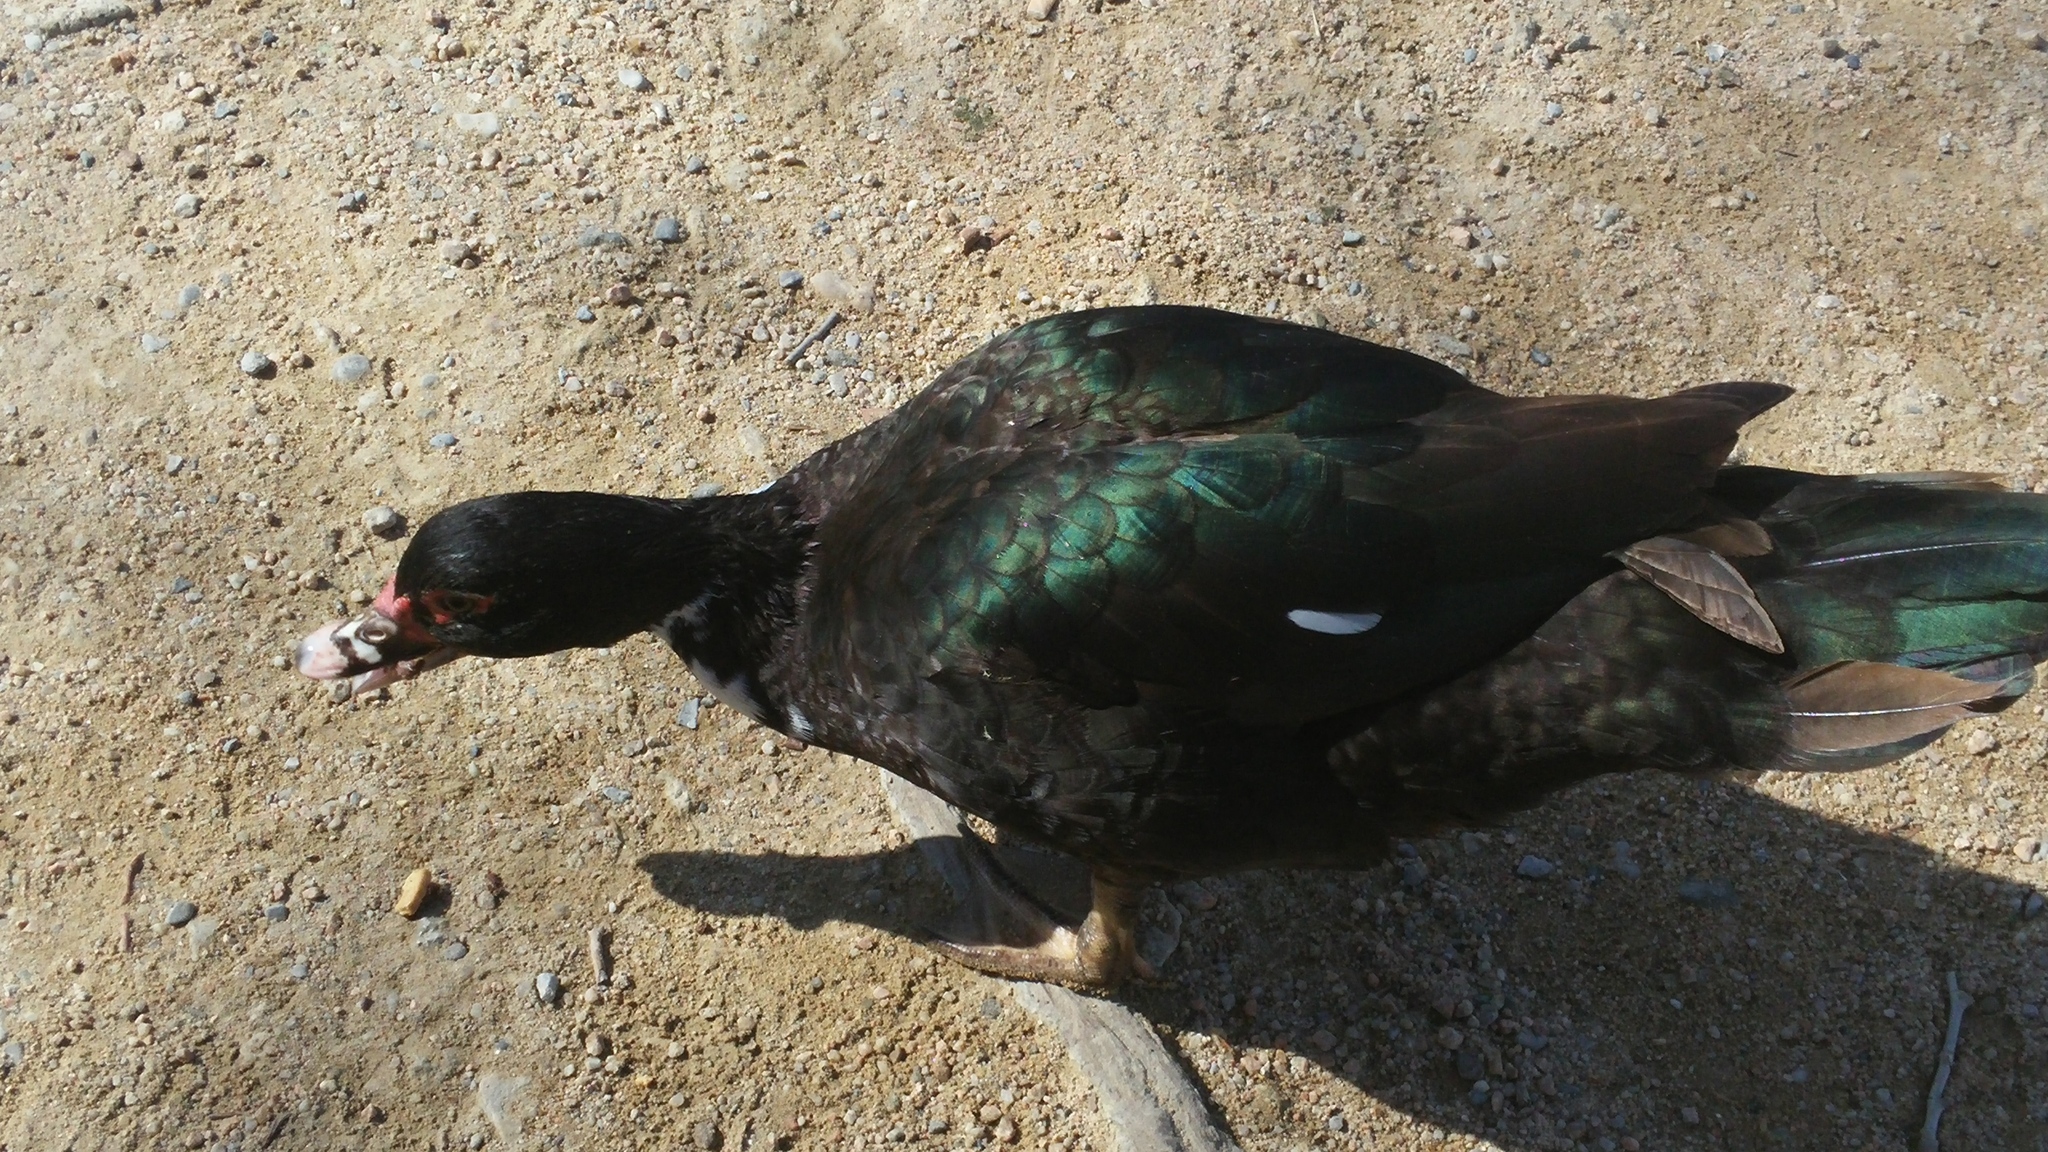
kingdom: Animalia
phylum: Chordata
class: Aves
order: Anseriformes
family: Anatidae
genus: Cairina
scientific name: Cairina moschata
